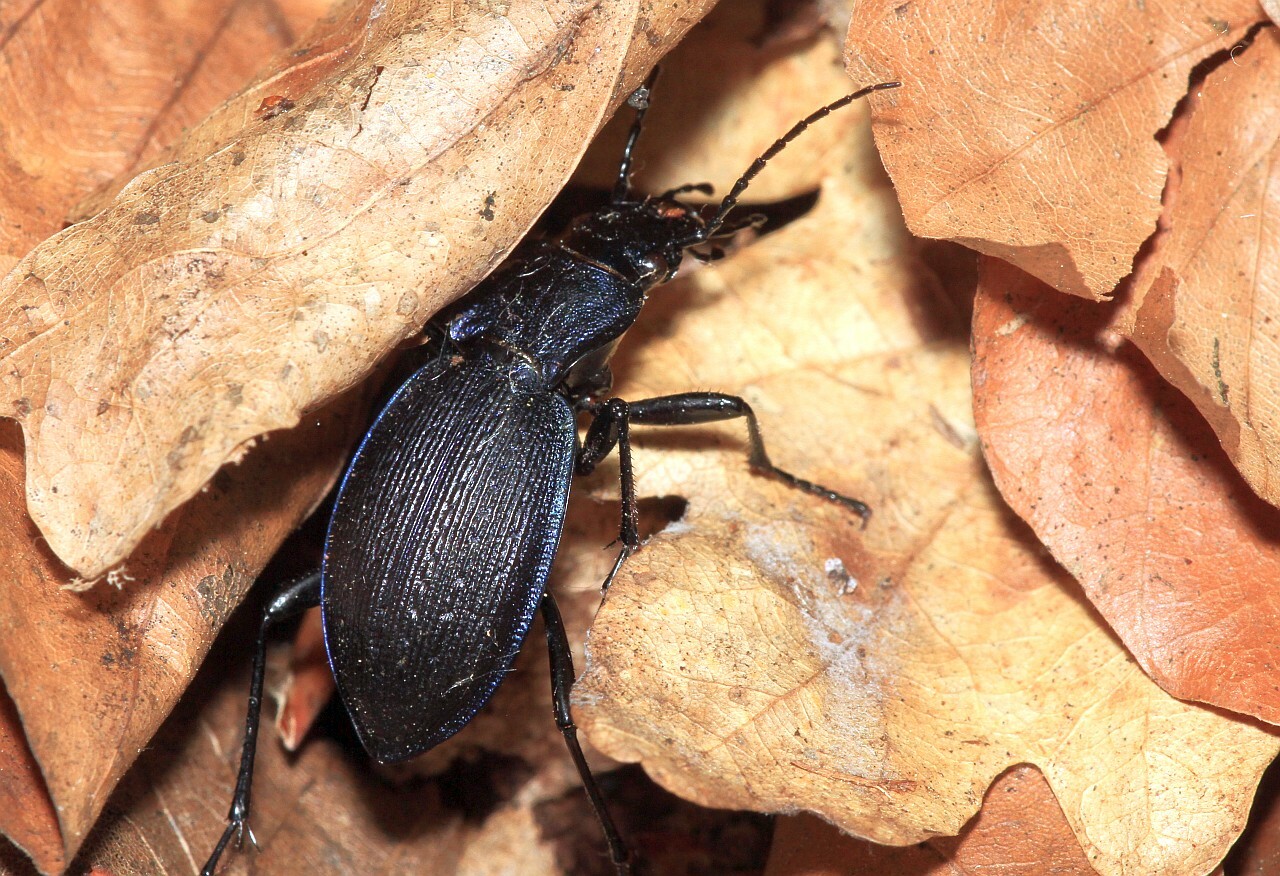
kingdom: Animalia
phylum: Arthropoda
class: Insecta
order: Coleoptera
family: Carabidae
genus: Carabus
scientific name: Carabus problematicus
